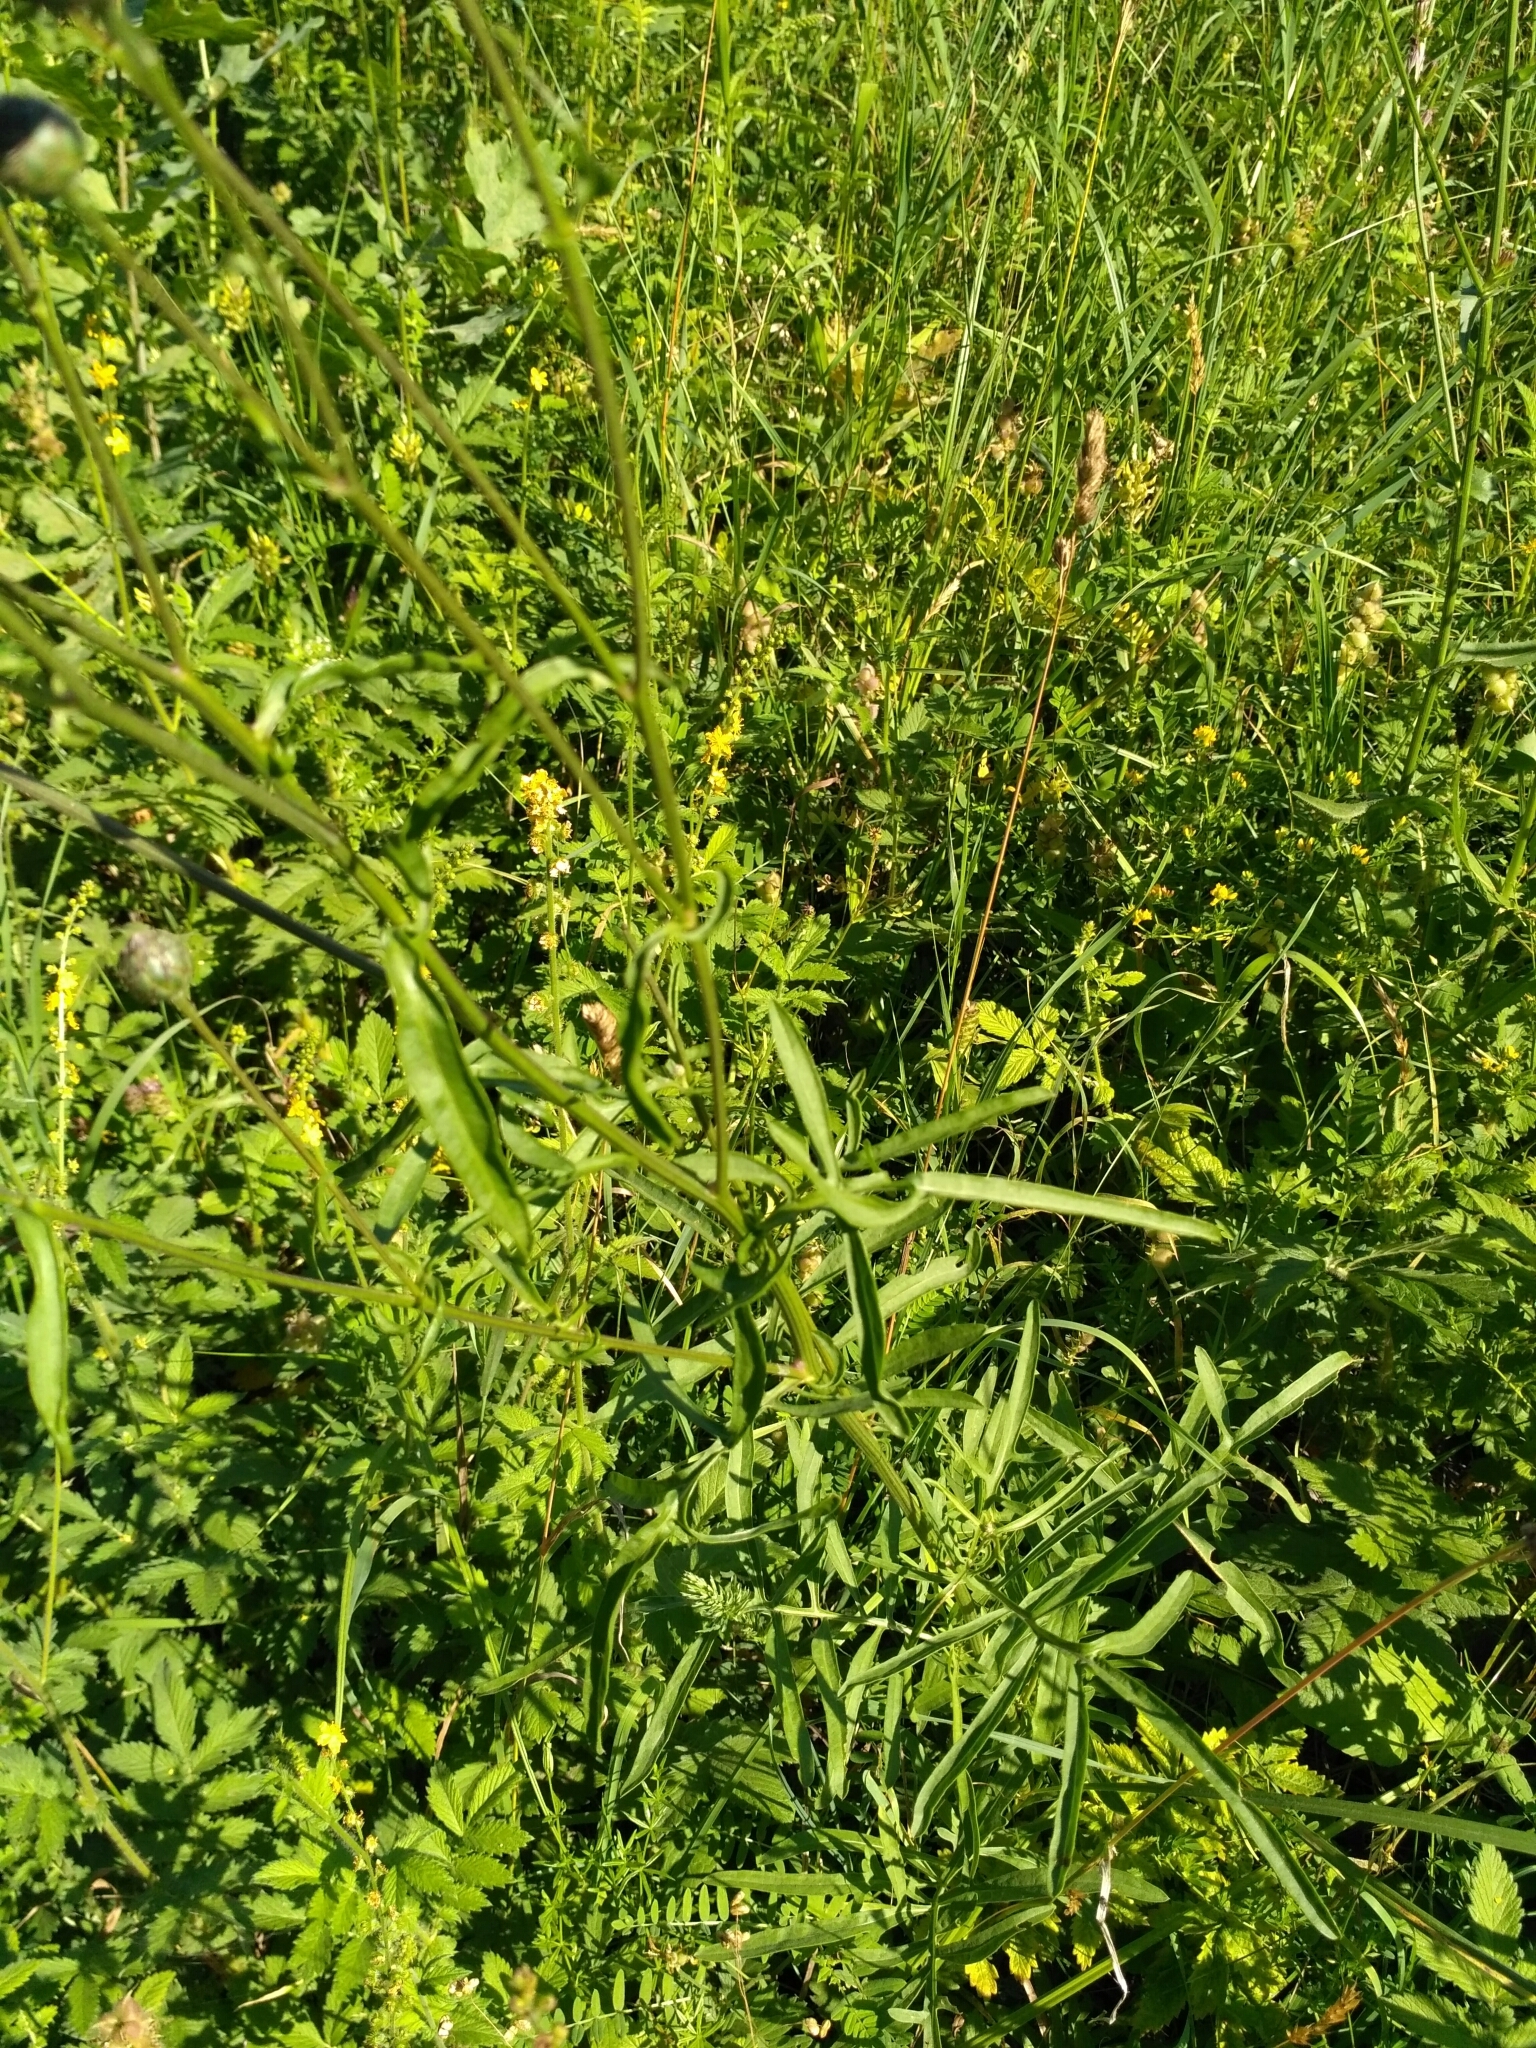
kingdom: Plantae
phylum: Tracheophyta
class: Magnoliopsida
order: Asterales
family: Asteraceae
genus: Centaurea
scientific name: Centaurea scabiosa
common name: Greater knapweed
